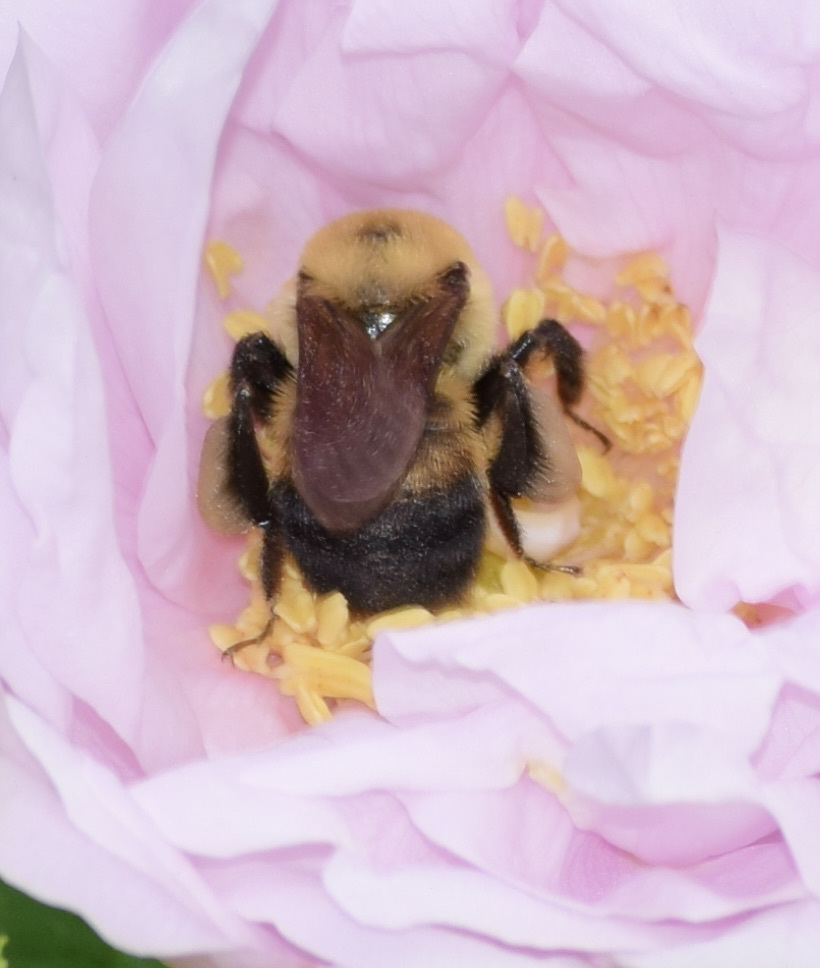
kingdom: Animalia
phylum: Arthropoda
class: Insecta
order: Hymenoptera
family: Apidae
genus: Bombus
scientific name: Bombus griseocollis
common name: Brown-belted bumble bee
